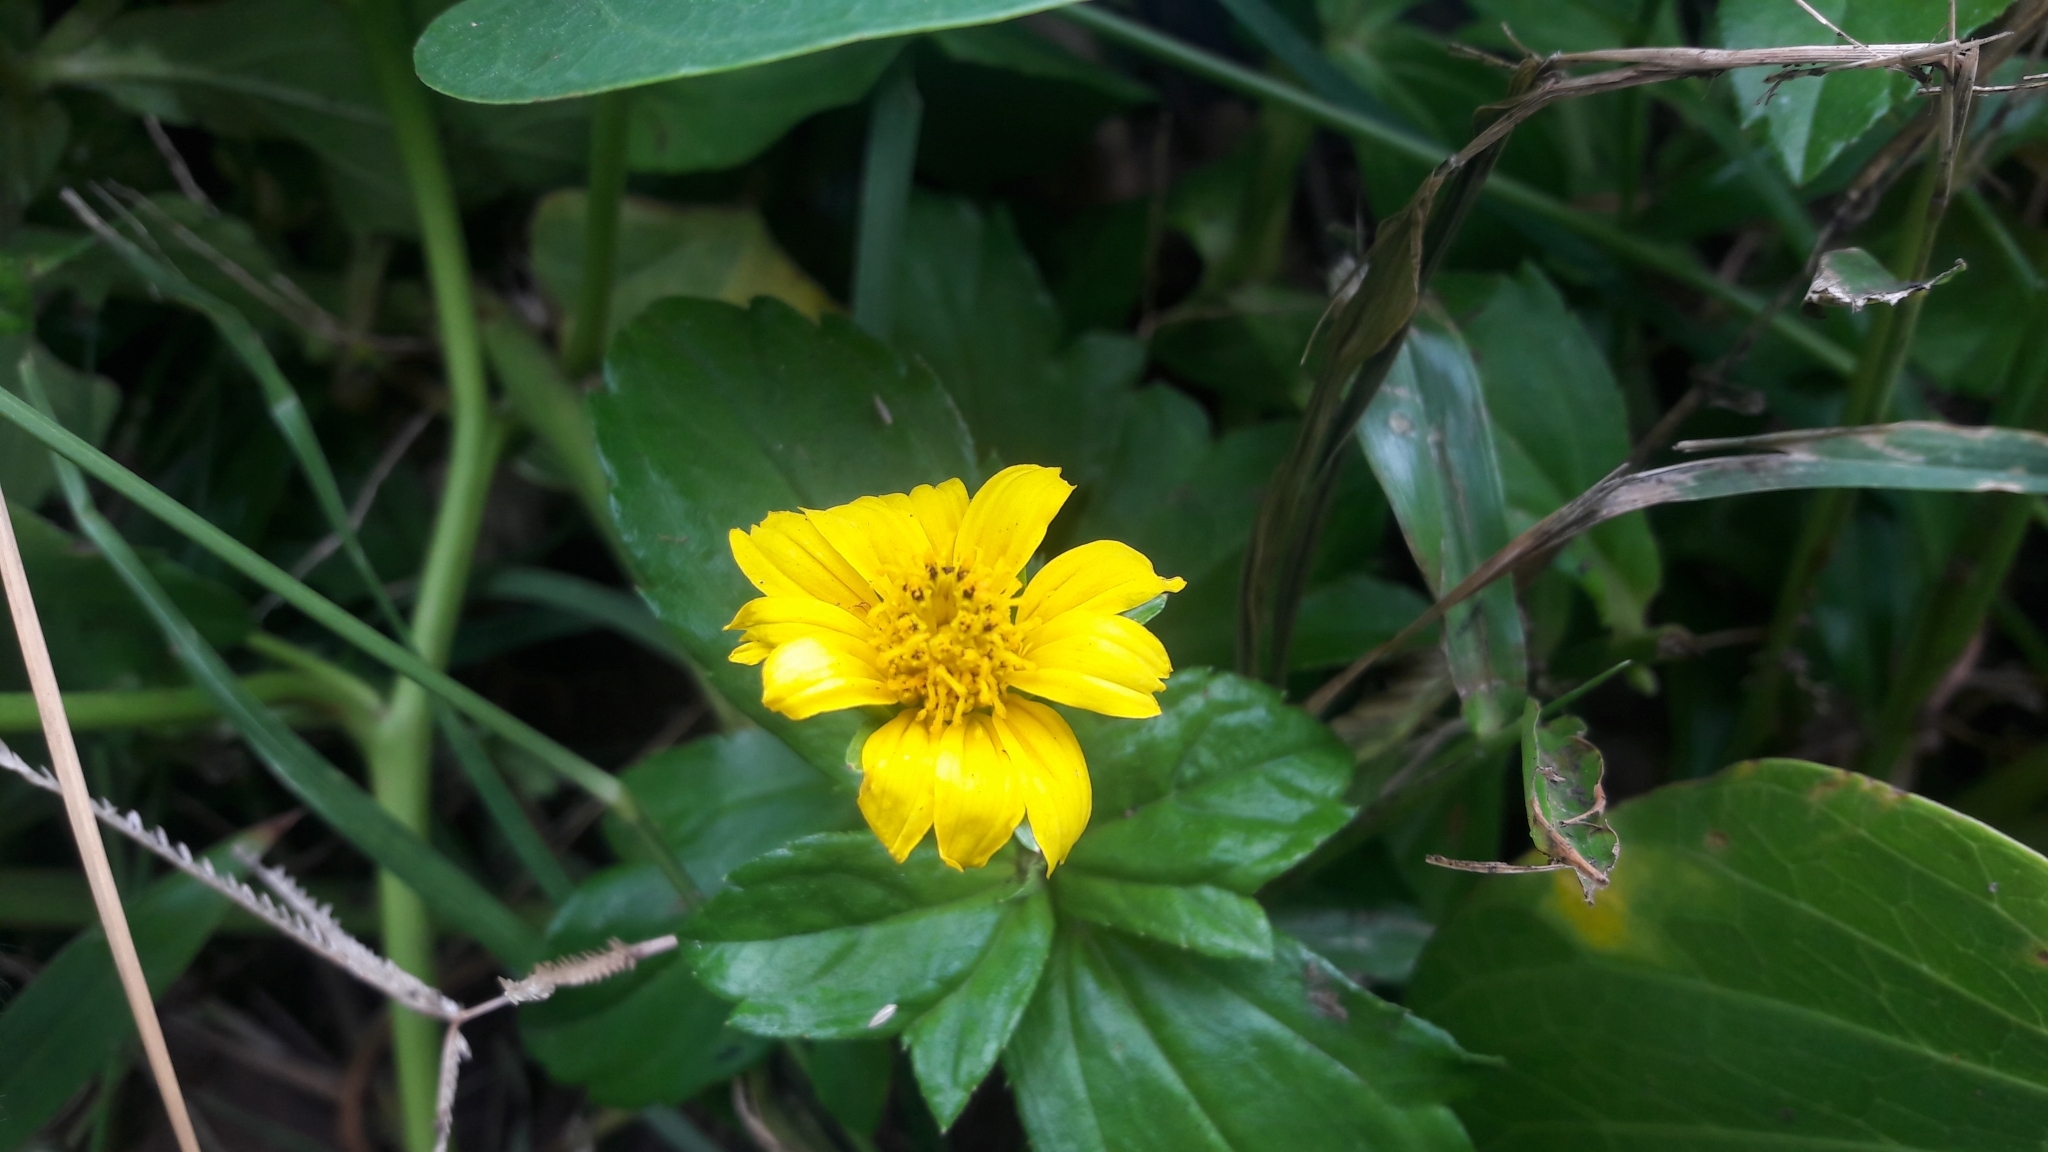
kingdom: Plantae
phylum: Tracheophyta
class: Magnoliopsida
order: Asterales
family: Asteraceae
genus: Sphagneticola
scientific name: Sphagneticola trilobata
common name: Bay biscayne creeping-oxeye
